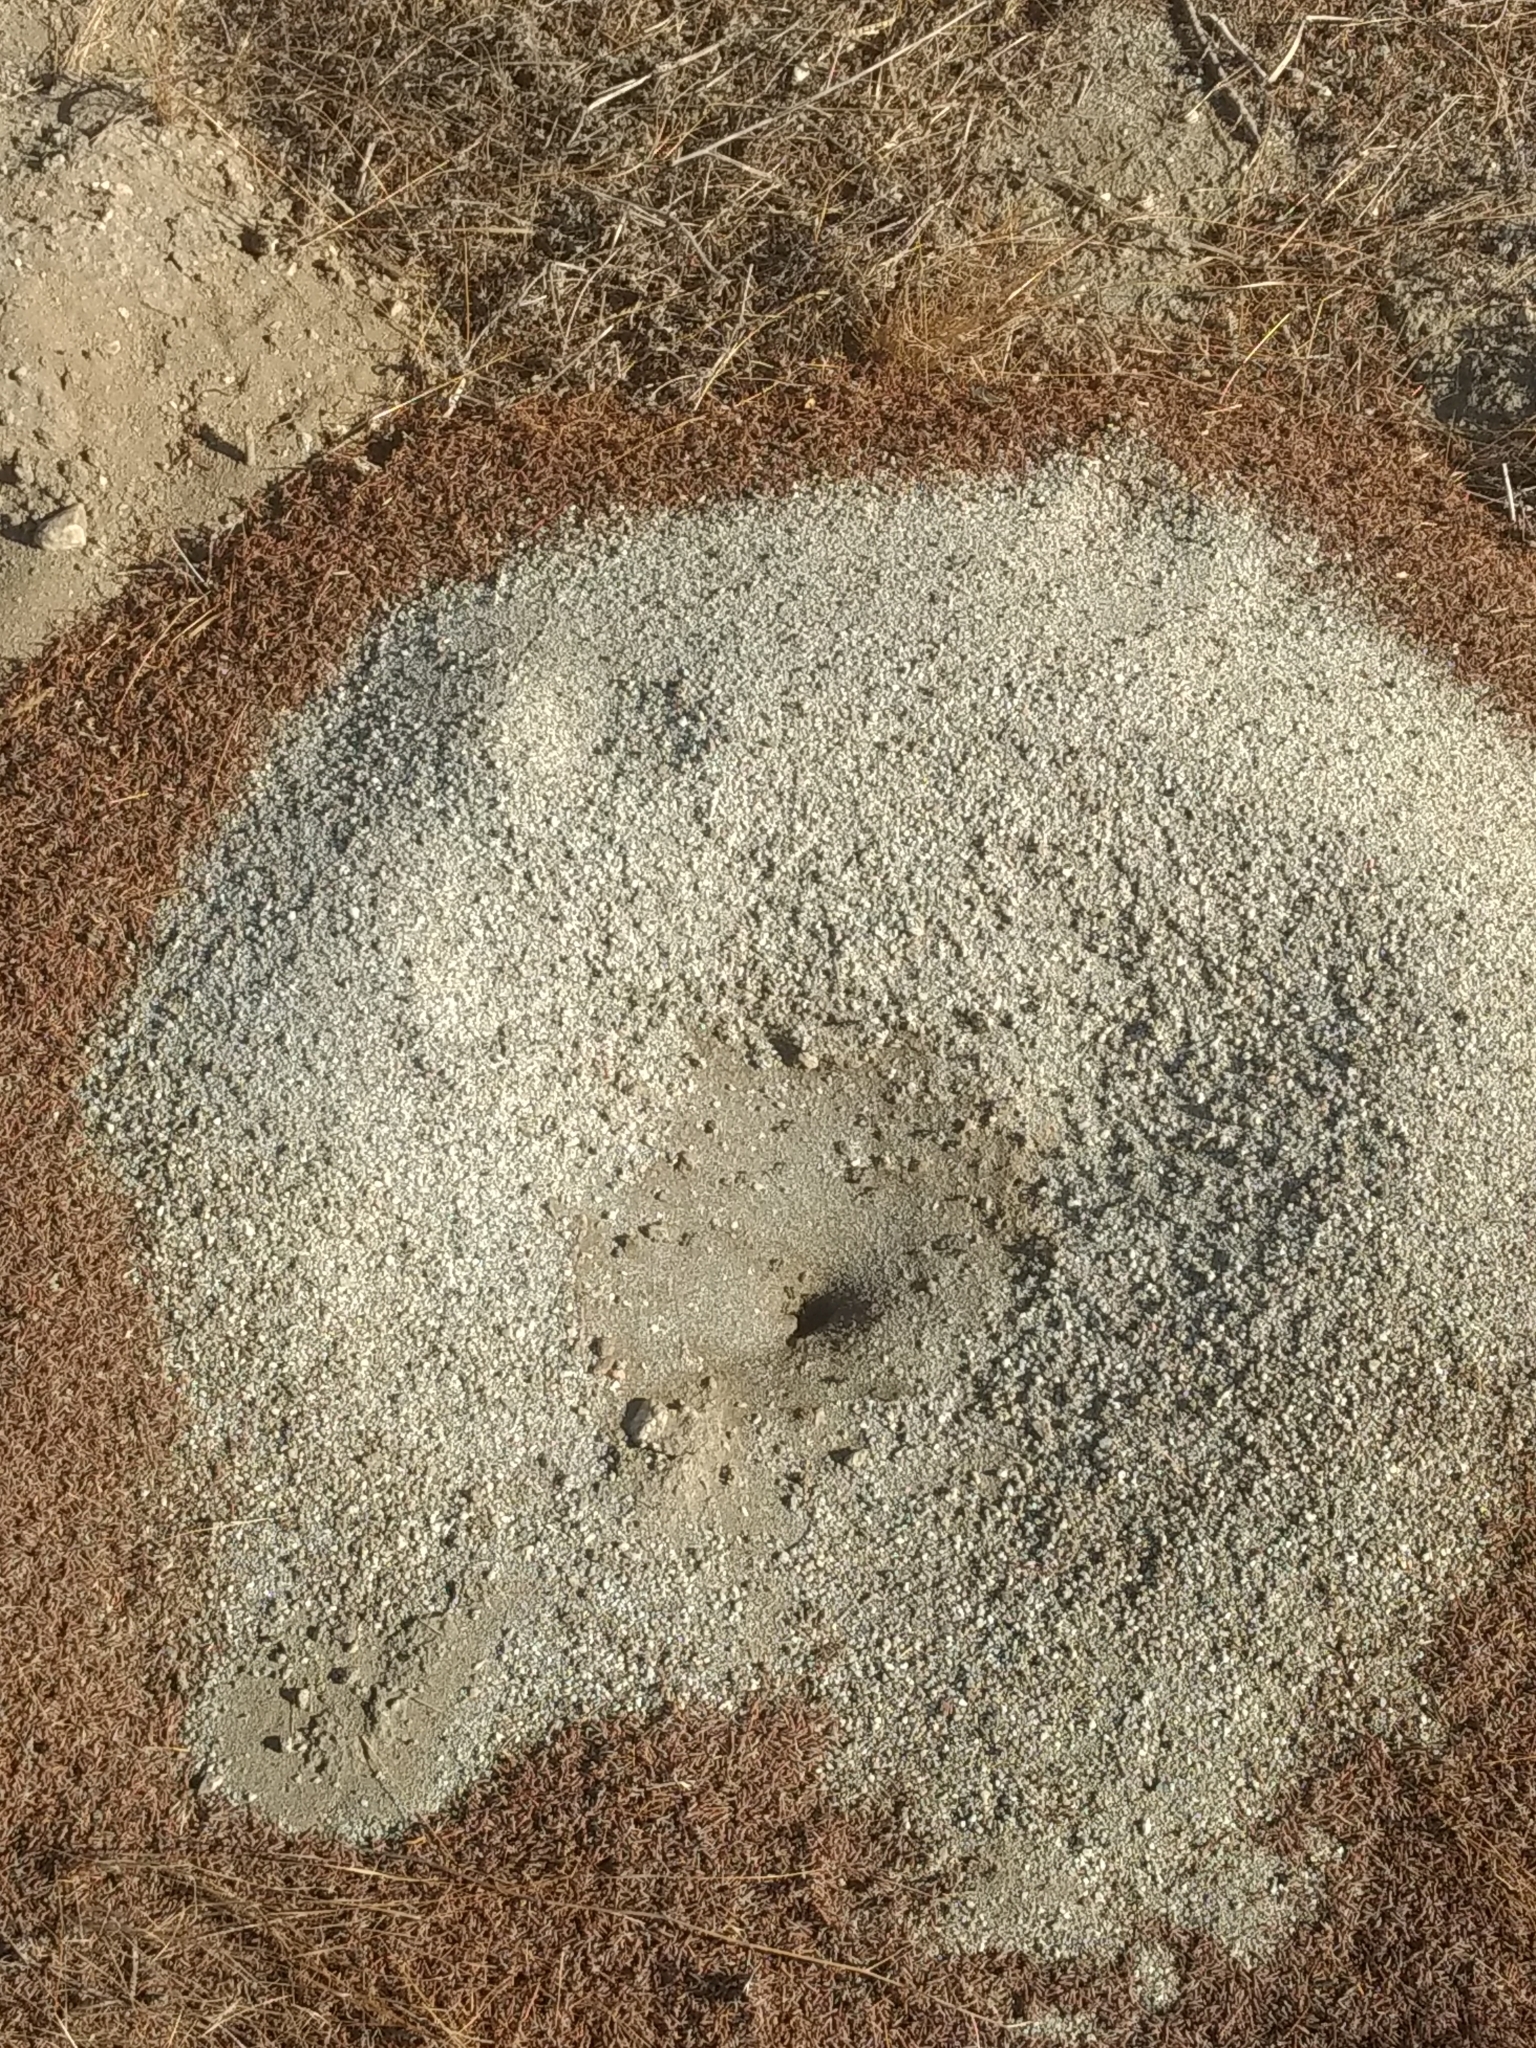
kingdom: Animalia
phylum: Arthropoda
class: Insecta
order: Hymenoptera
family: Formicidae
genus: Messor
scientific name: Messor pergandei
